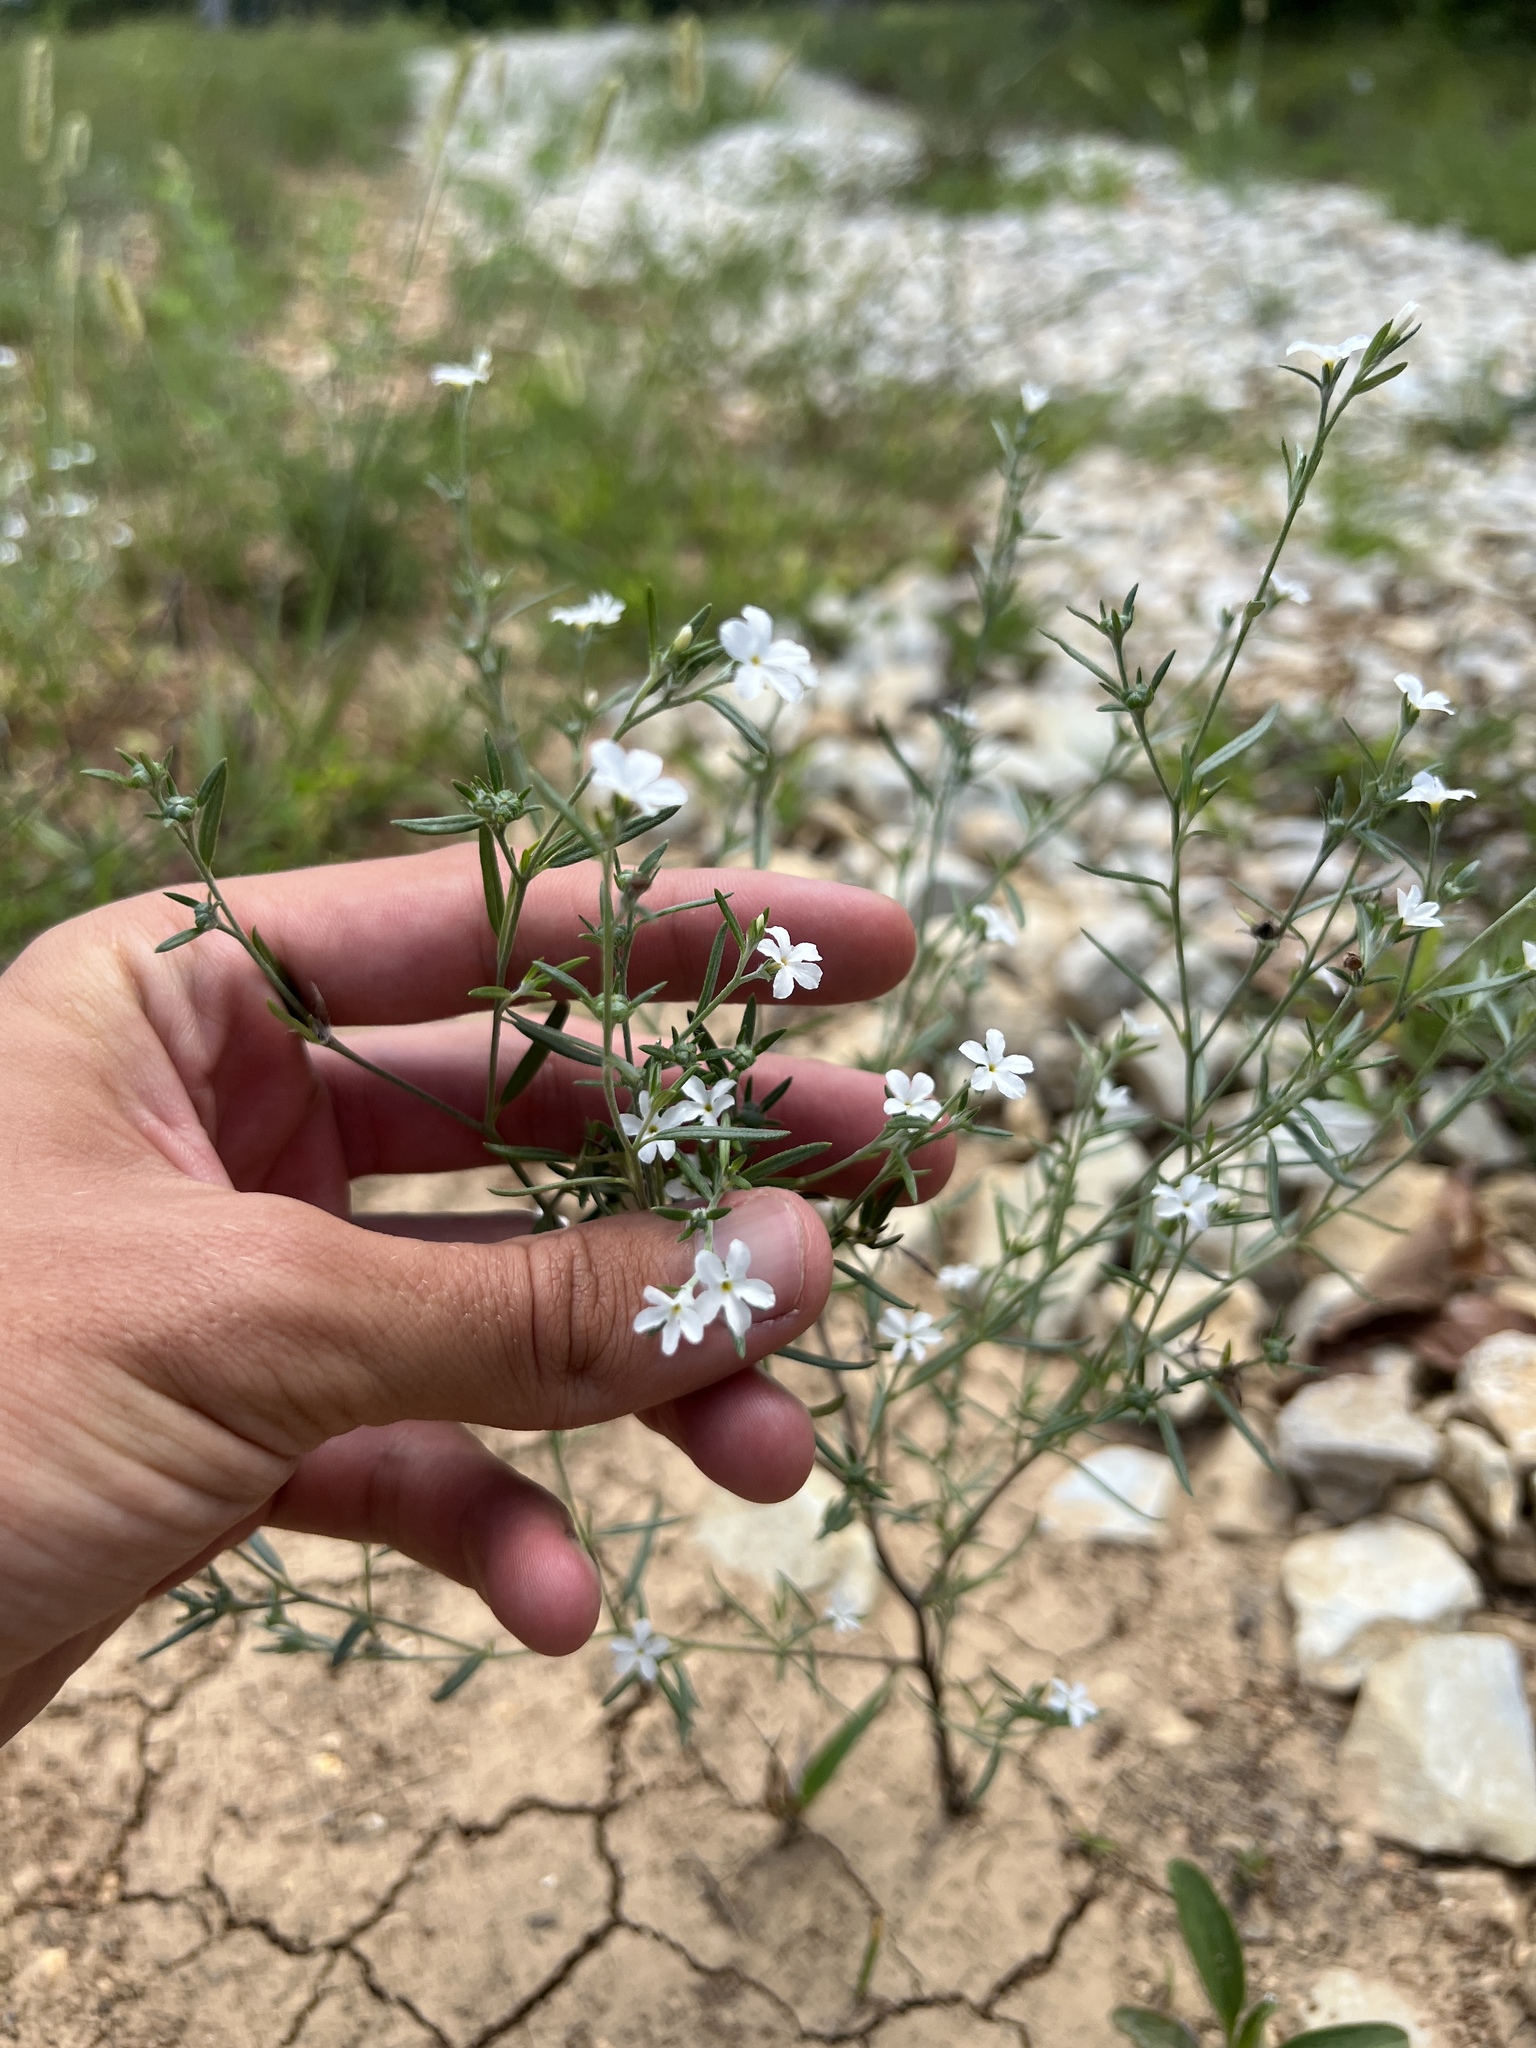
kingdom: Plantae
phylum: Tracheophyta
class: Magnoliopsida
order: Boraginales
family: Heliotropiaceae
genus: Euploca
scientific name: Euploca tenella
